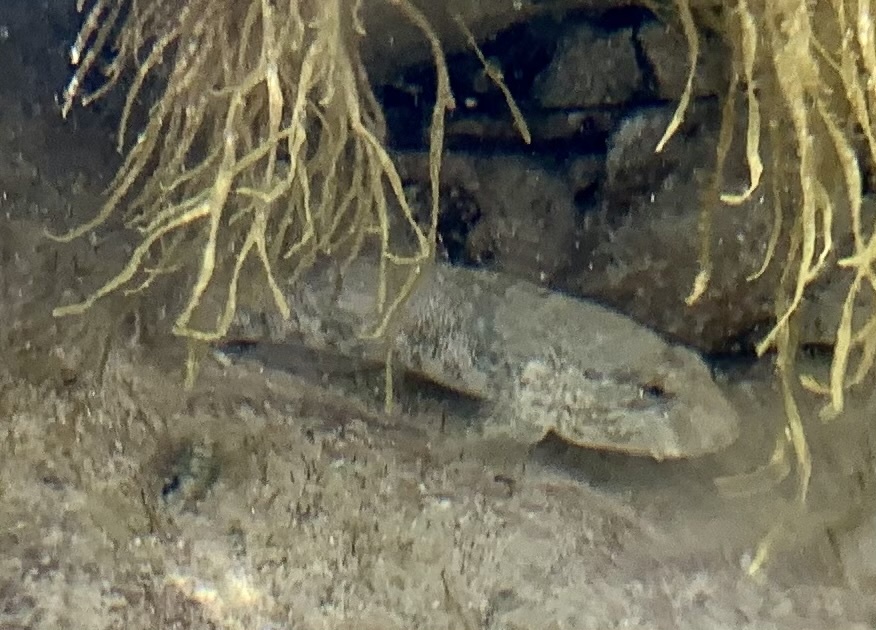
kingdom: Animalia
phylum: Chordata
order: Perciformes
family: Gobiidae
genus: Gobius
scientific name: Gobius cobitis
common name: Giant goby
